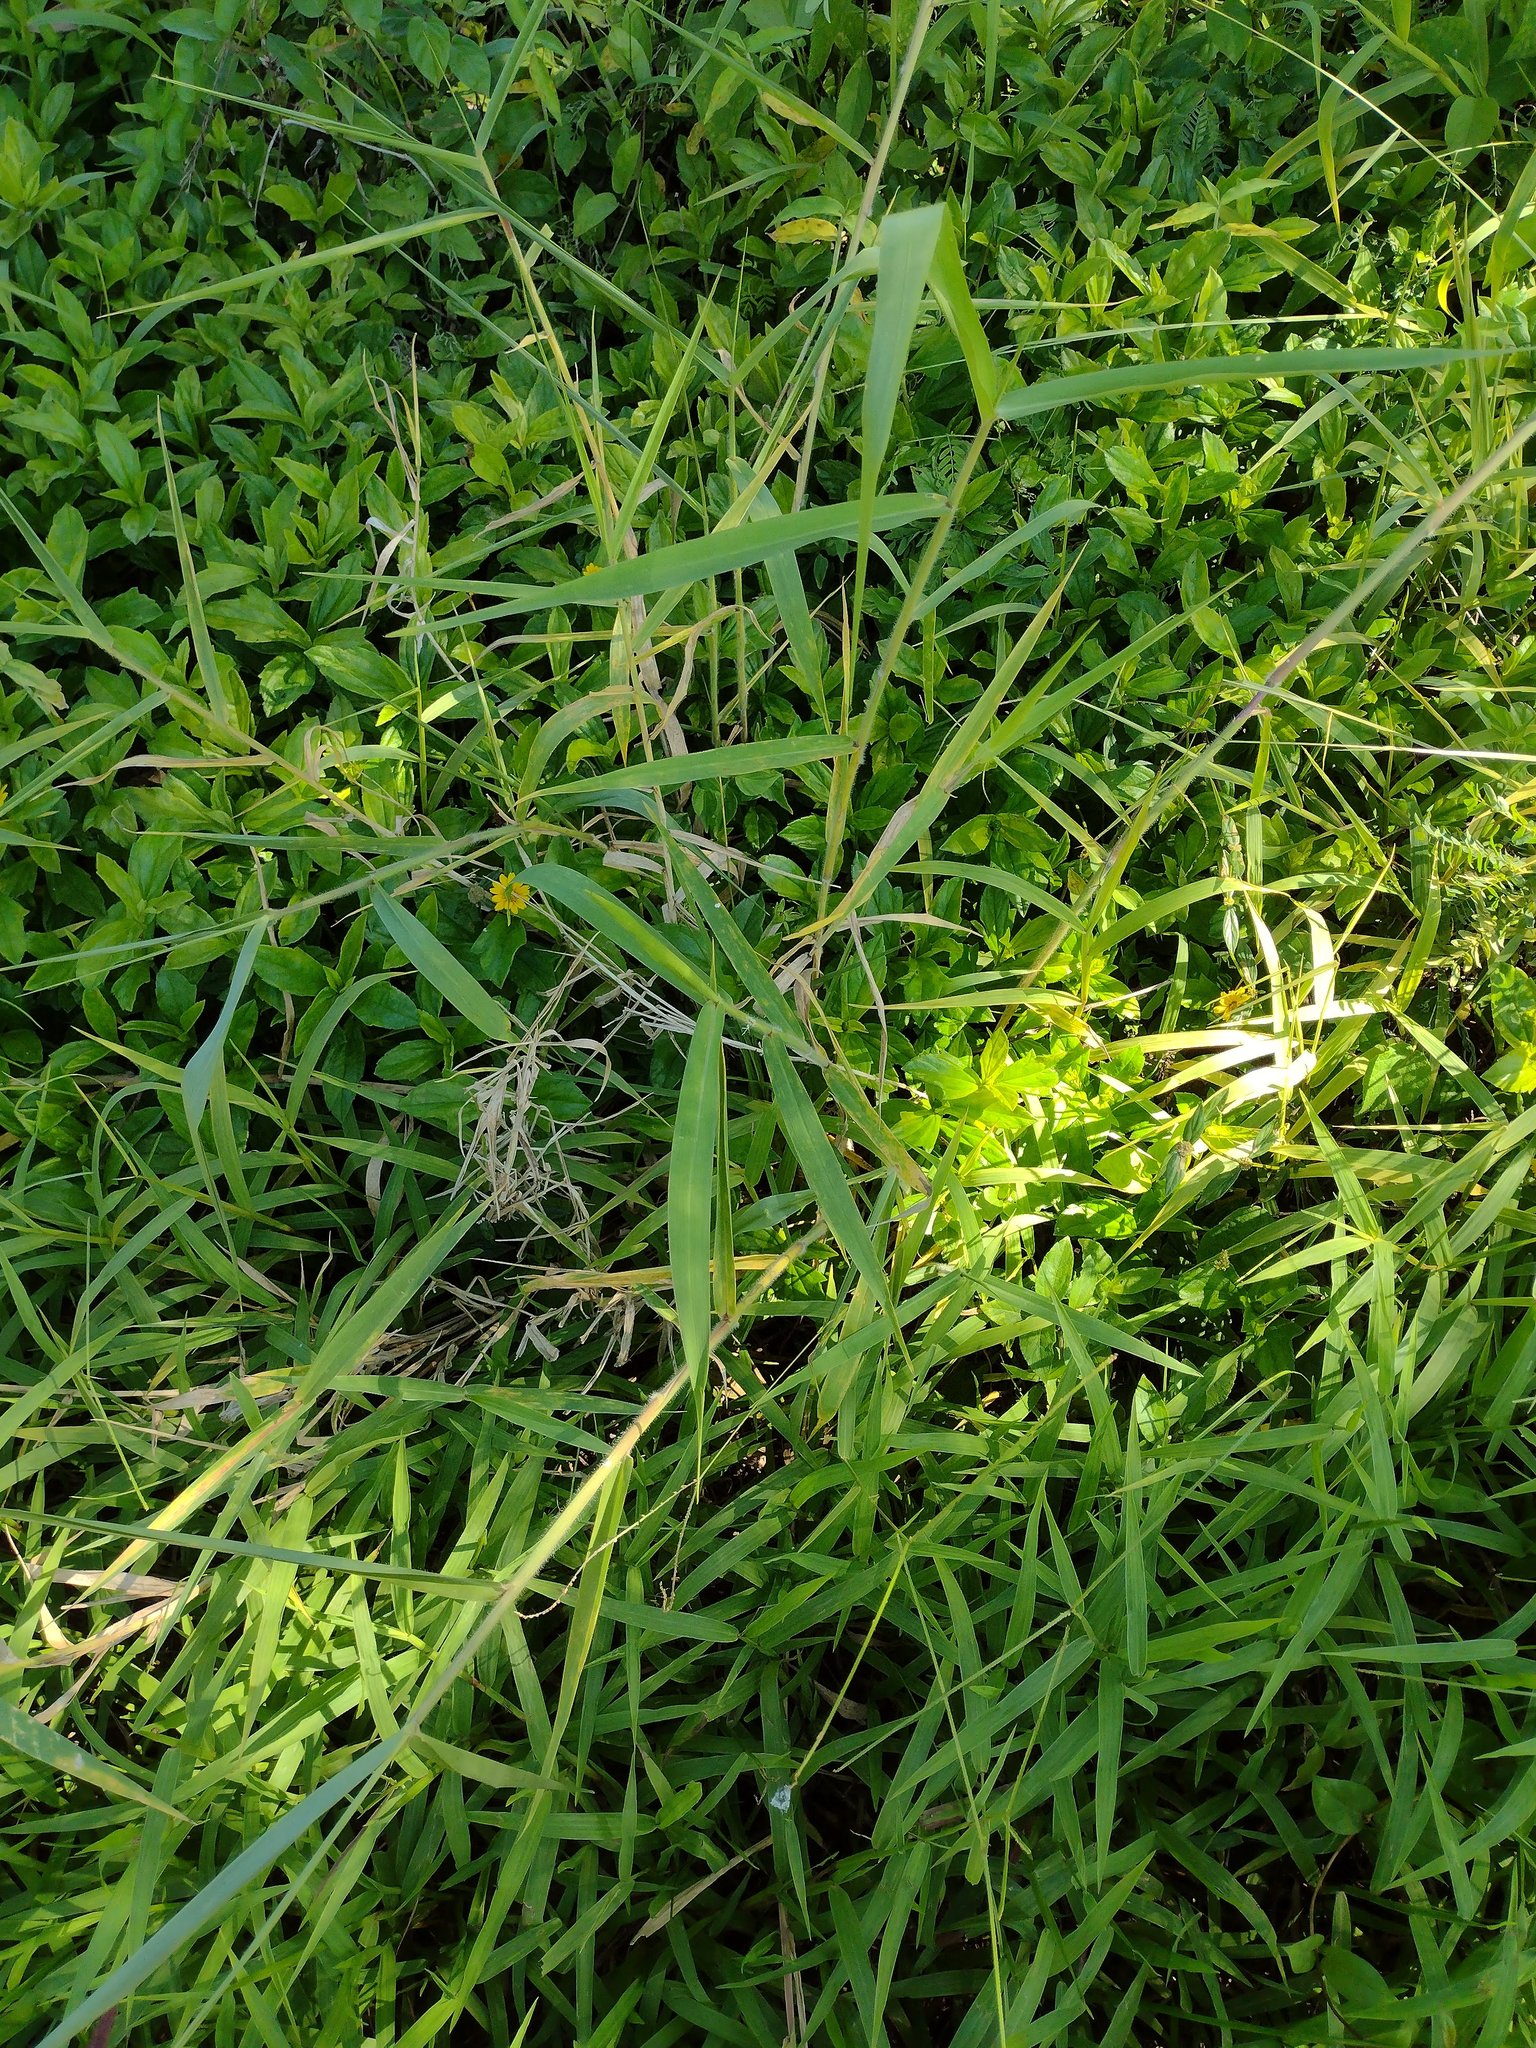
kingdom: Plantae
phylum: Tracheophyta
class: Liliopsida
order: Poales
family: Poaceae
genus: Urochloa
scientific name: Urochloa mutica
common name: Para grass
